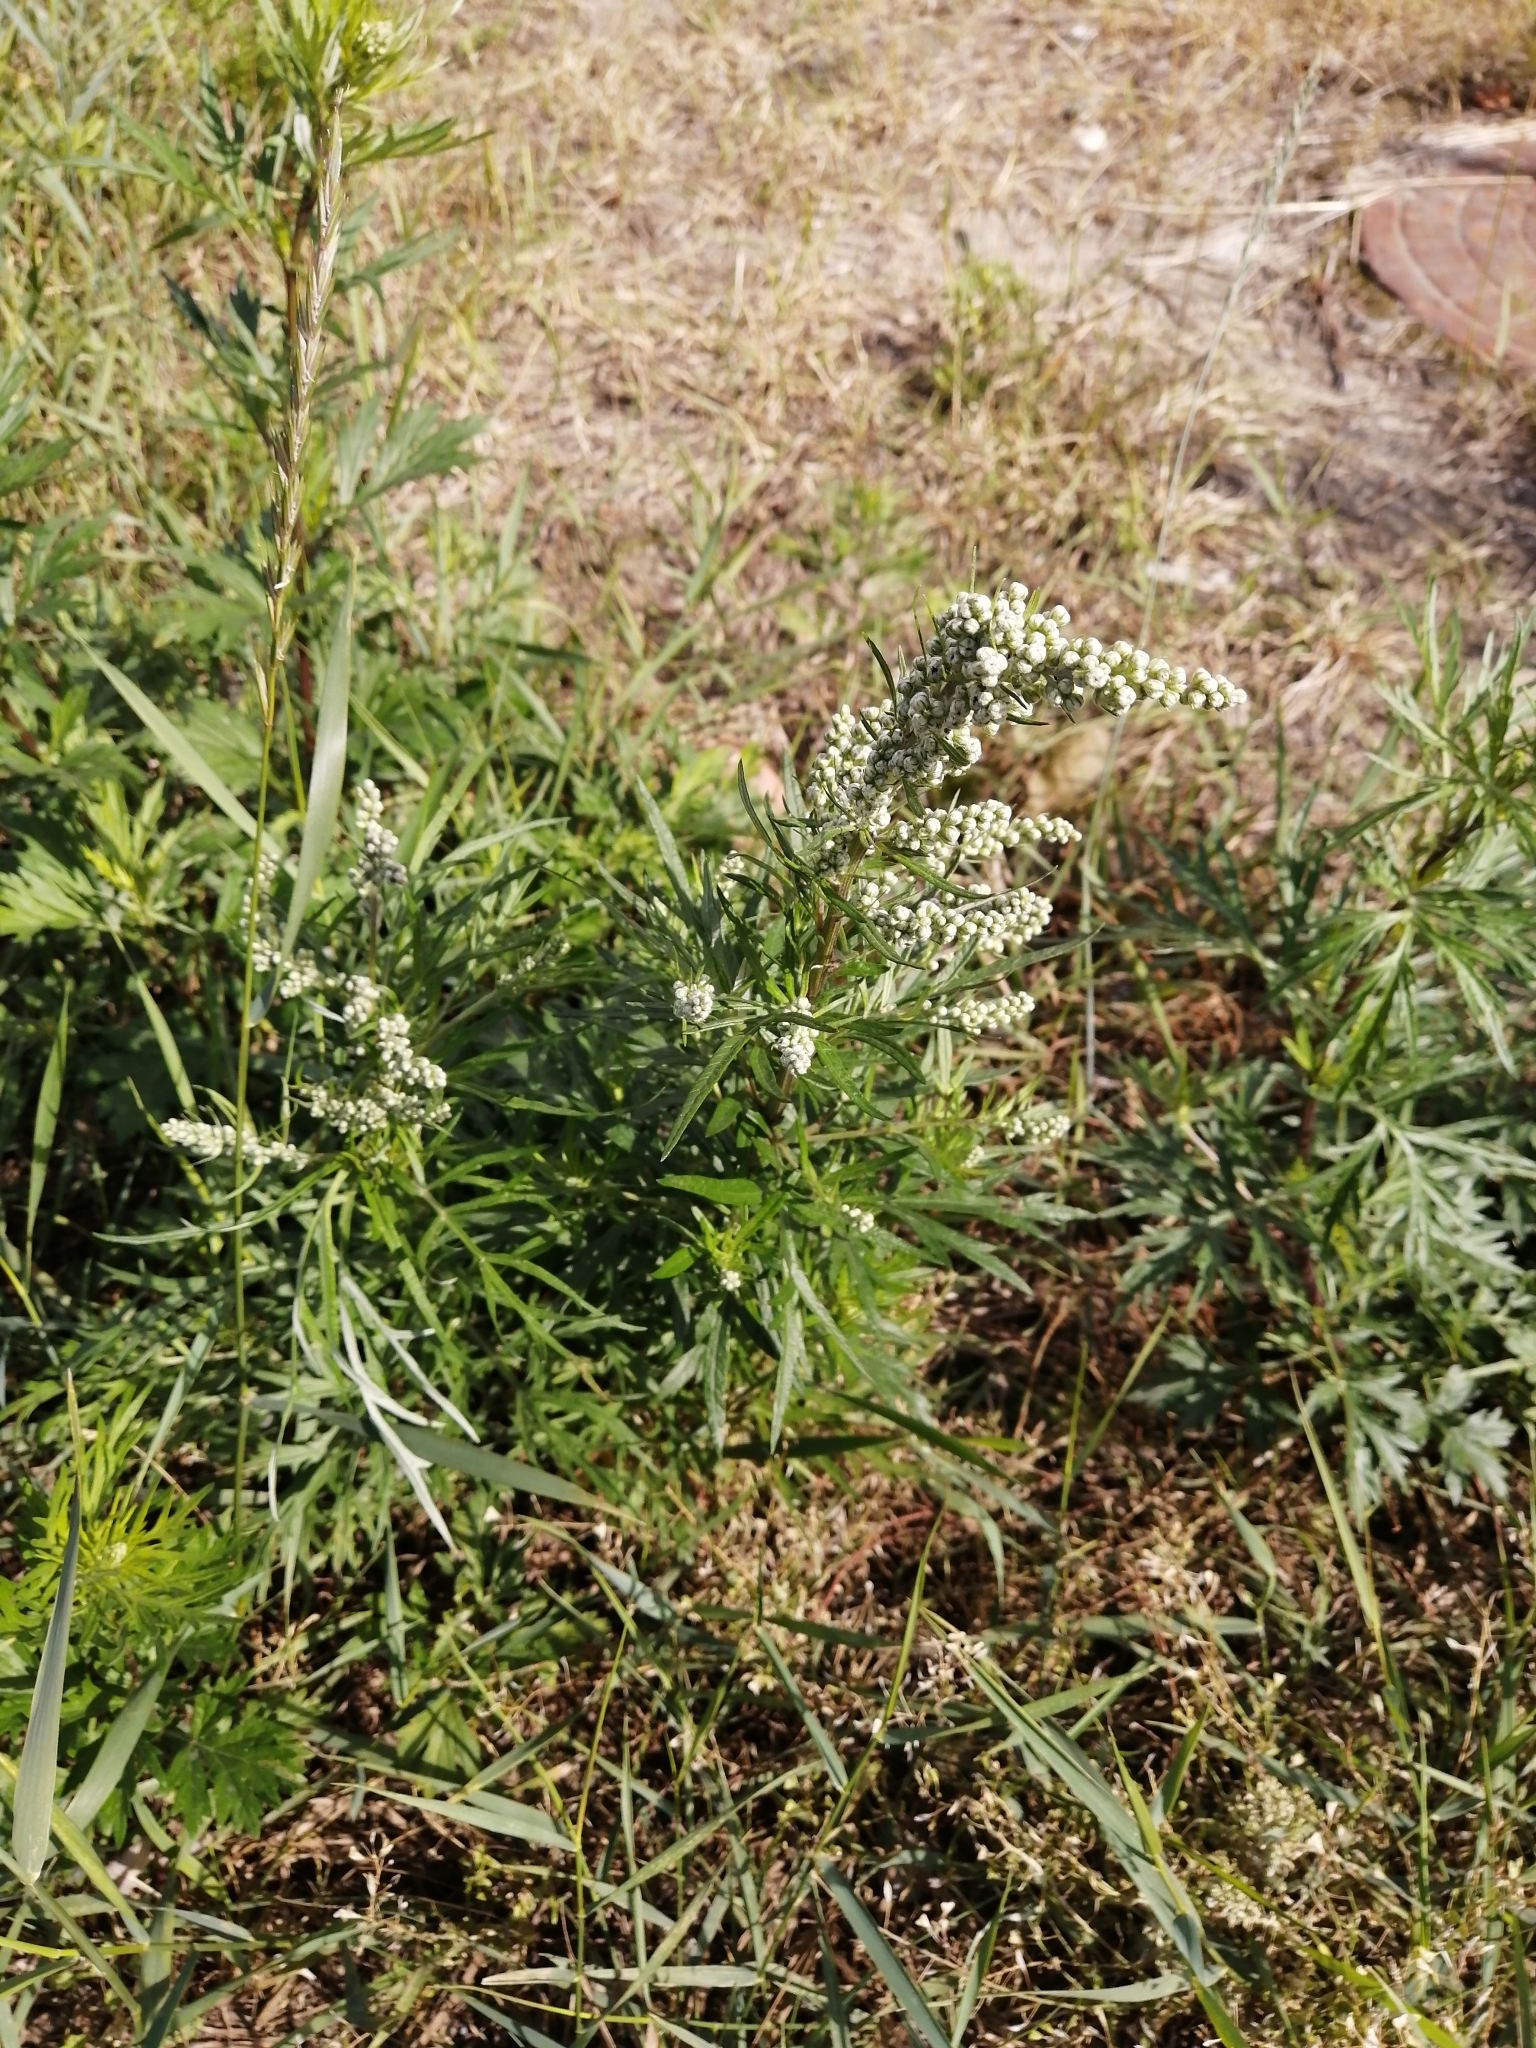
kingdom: Plantae
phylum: Tracheophyta
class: Magnoliopsida
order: Asterales
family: Asteraceae
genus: Artemisia
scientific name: Artemisia vulgaris
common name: Mugwort
